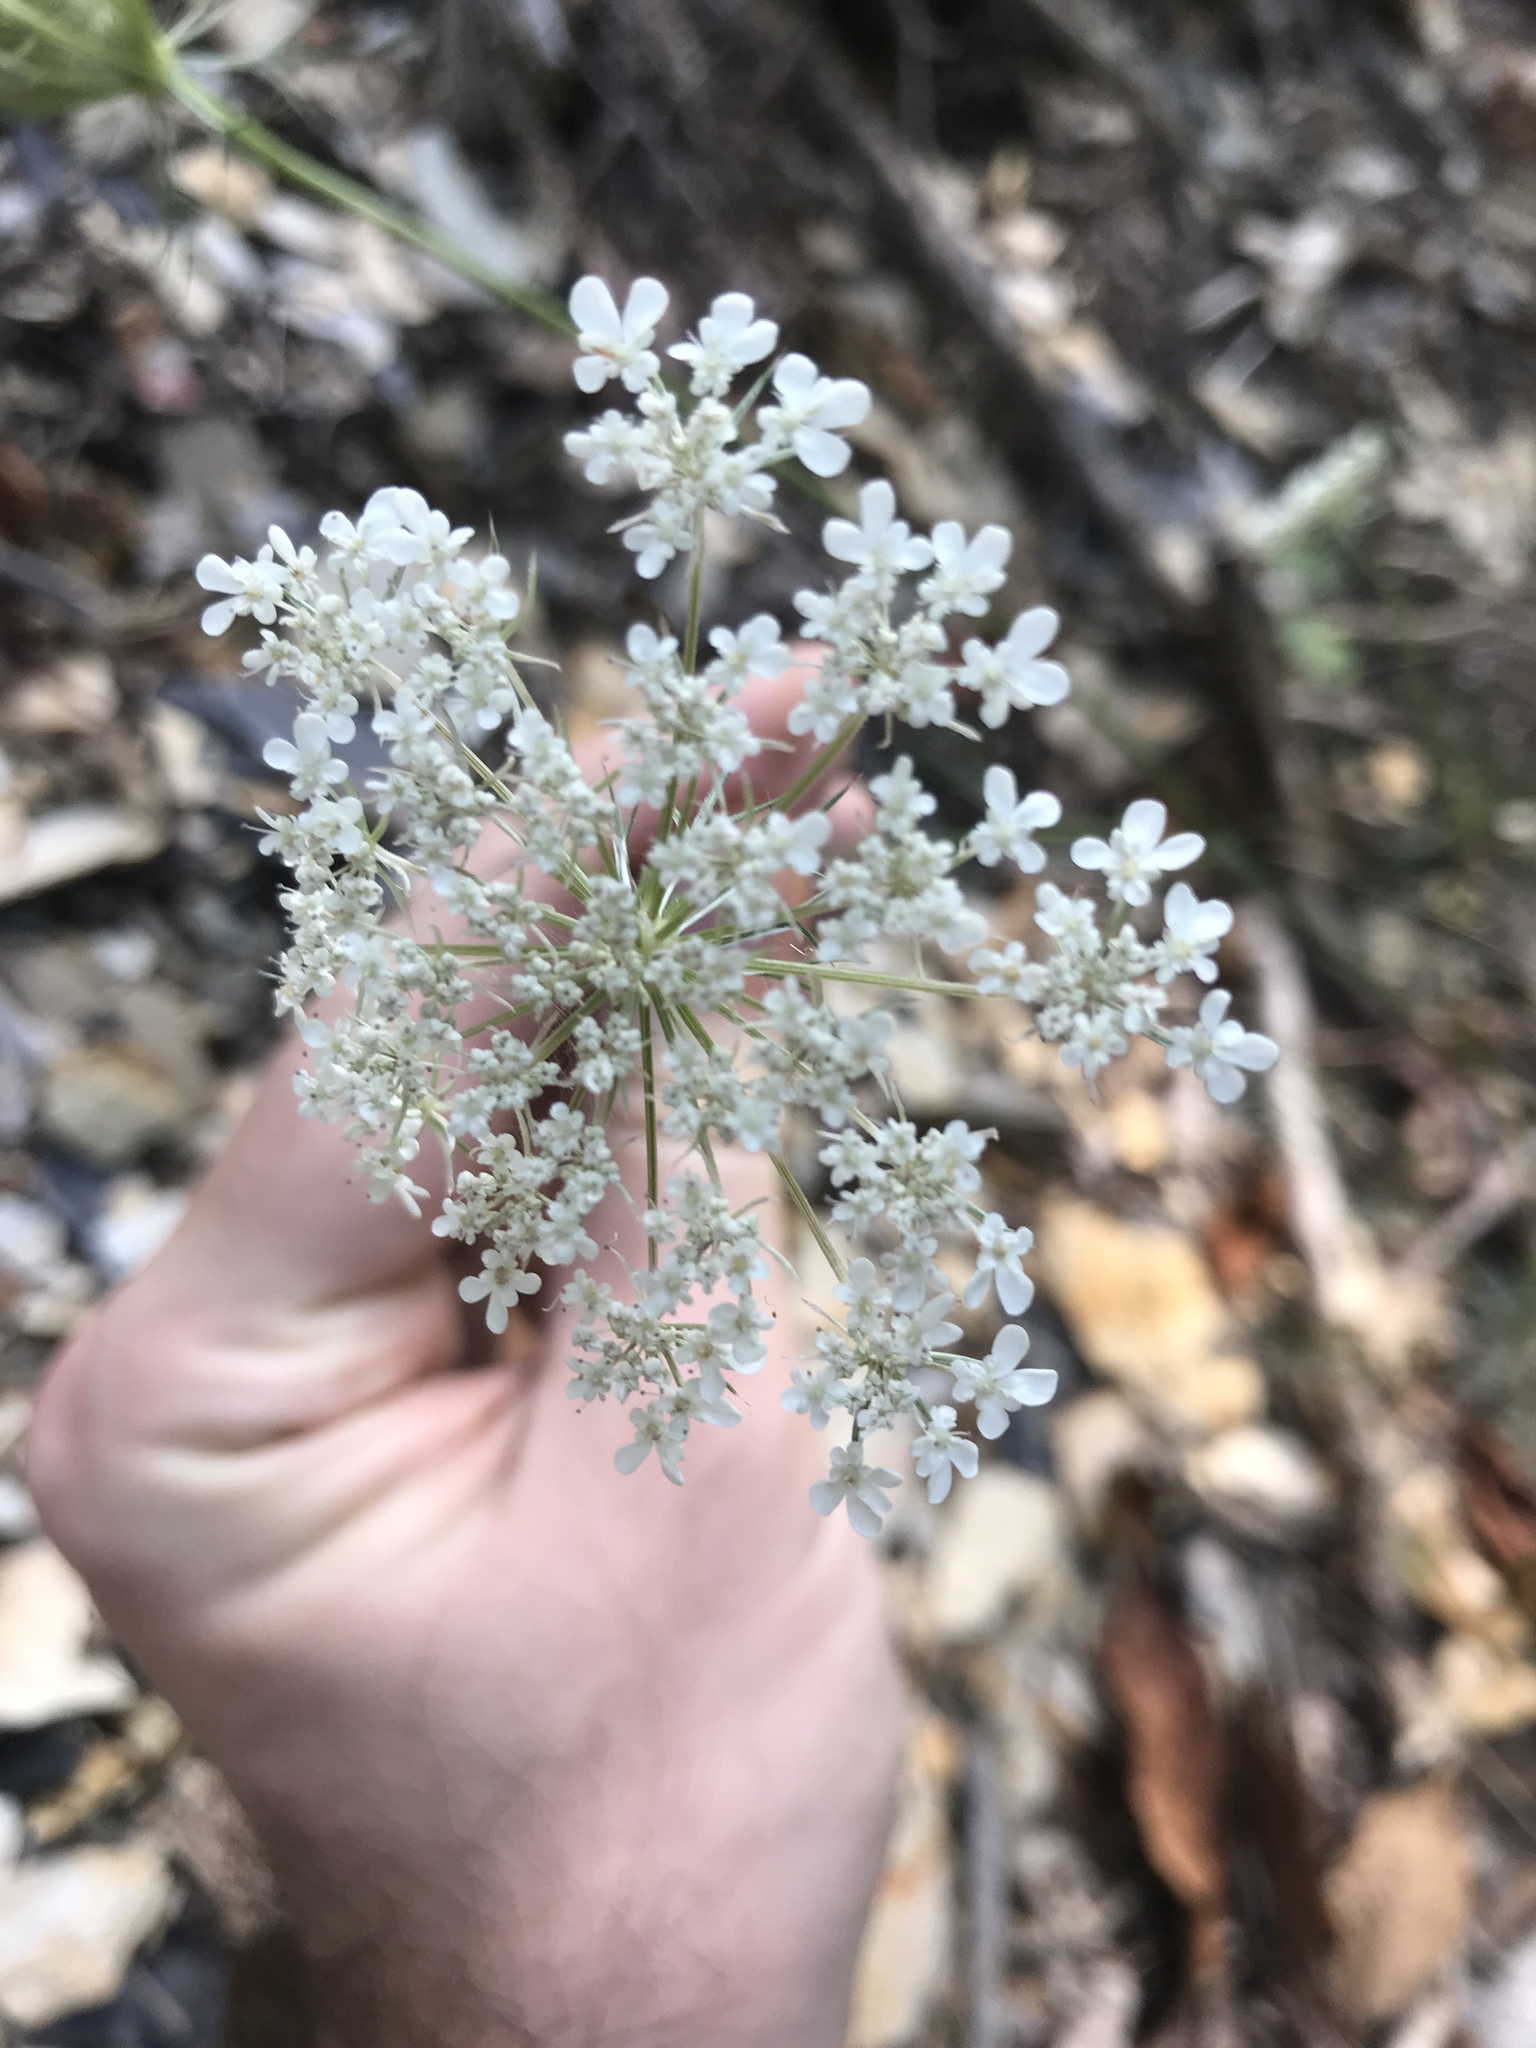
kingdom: Plantae
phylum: Tracheophyta
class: Magnoliopsida
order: Apiales
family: Apiaceae
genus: Daucus
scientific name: Daucus carota
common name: Wild carrot
